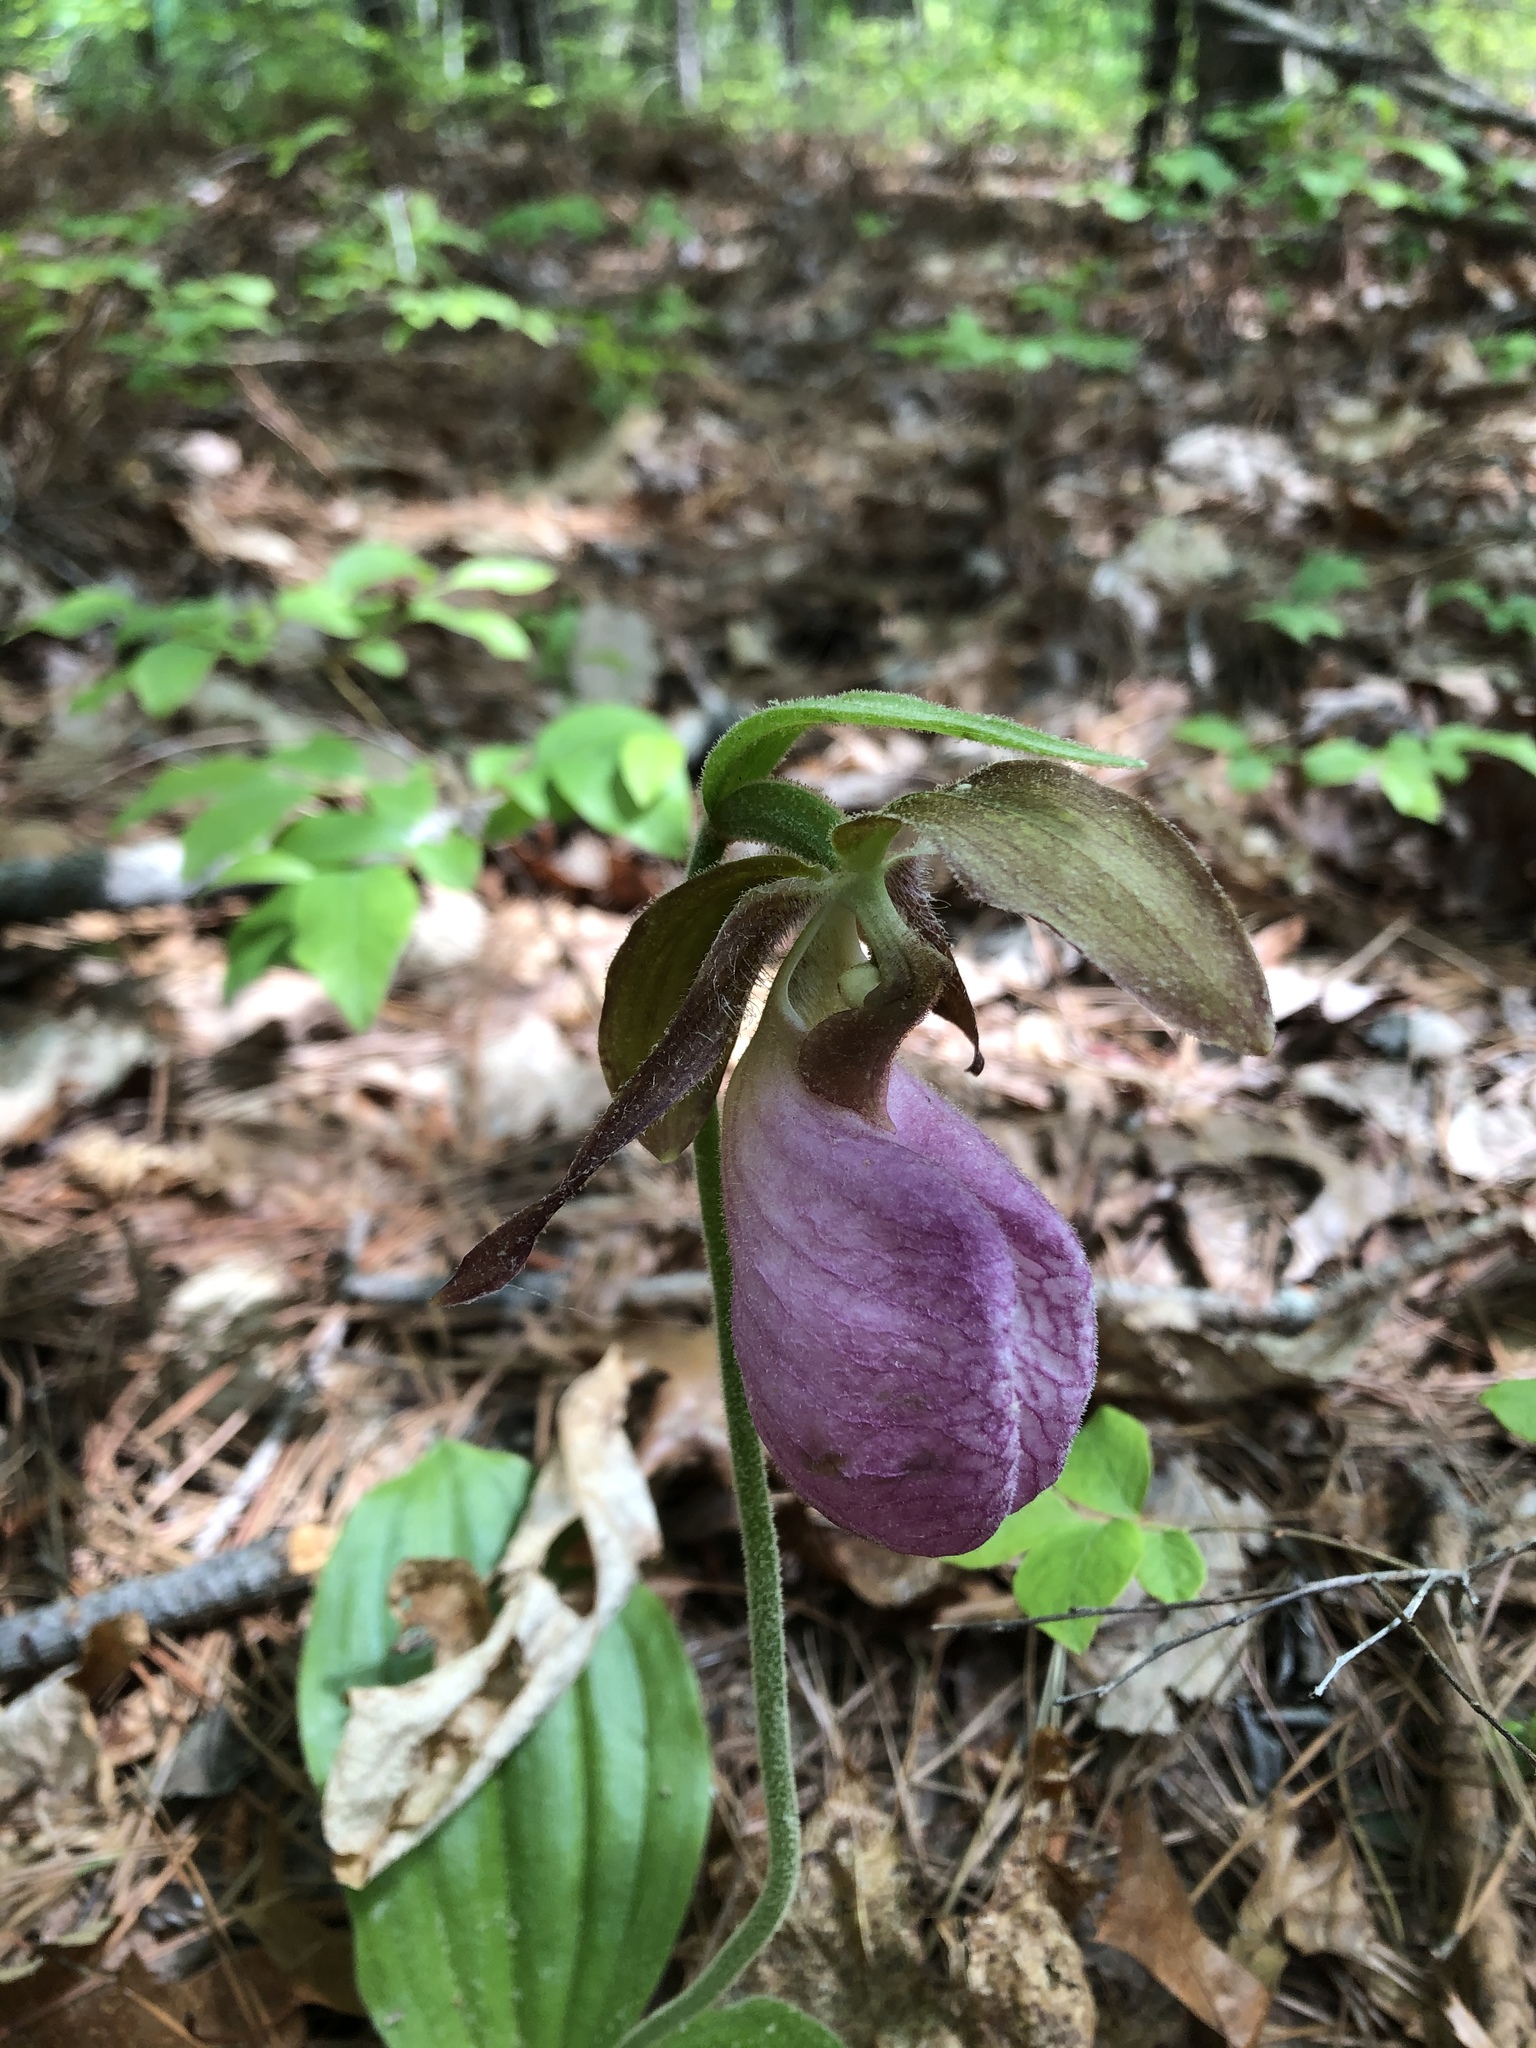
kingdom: Plantae
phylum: Tracheophyta
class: Liliopsida
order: Asparagales
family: Orchidaceae
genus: Cypripedium
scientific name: Cypripedium acaule
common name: Pink lady's-slipper
